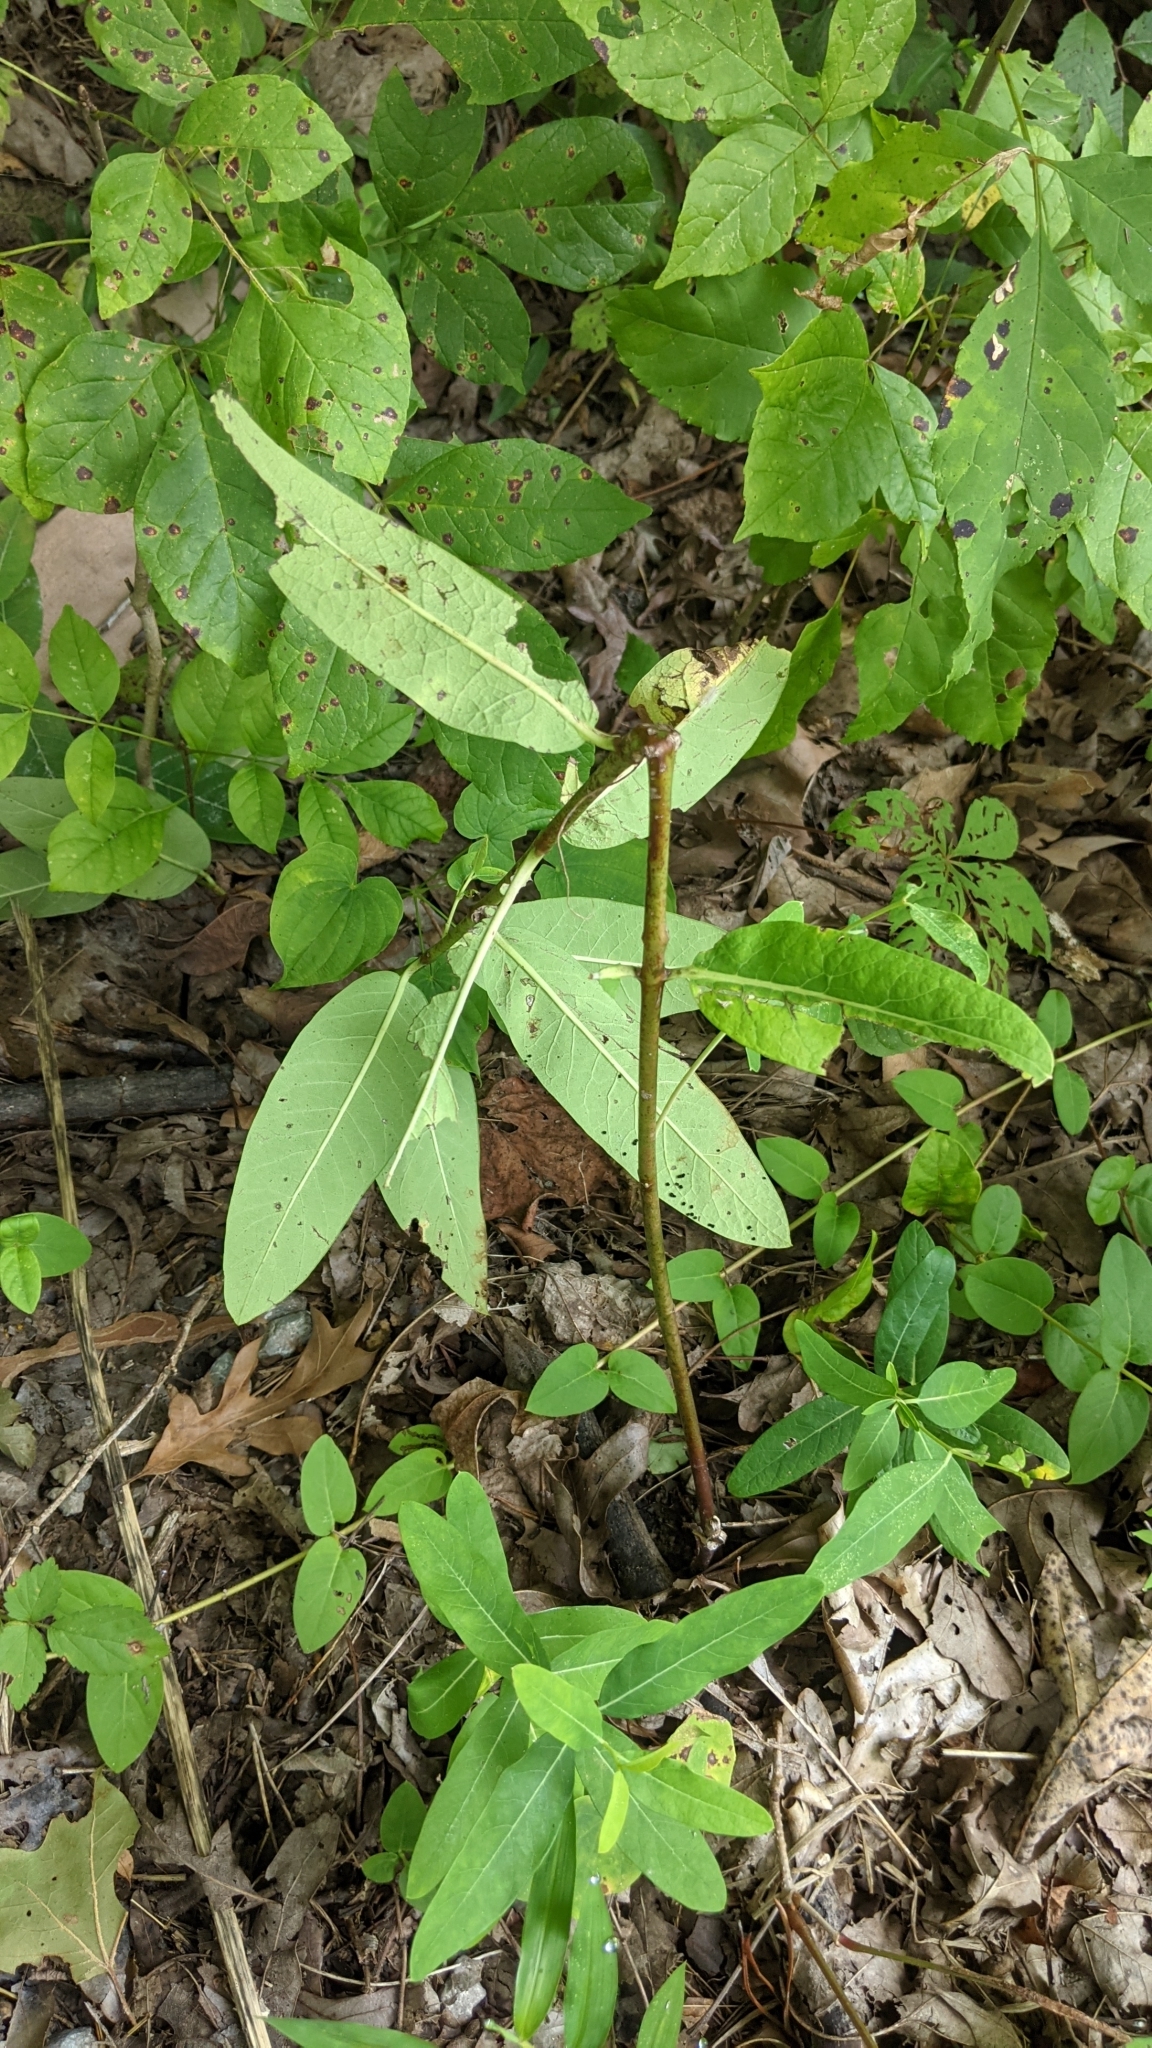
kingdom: Plantae
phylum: Tracheophyta
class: Magnoliopsida
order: Gentianales
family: Apocynaceae
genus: Apocynum
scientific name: Apocynum cannabinum
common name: Hemp dogbane
